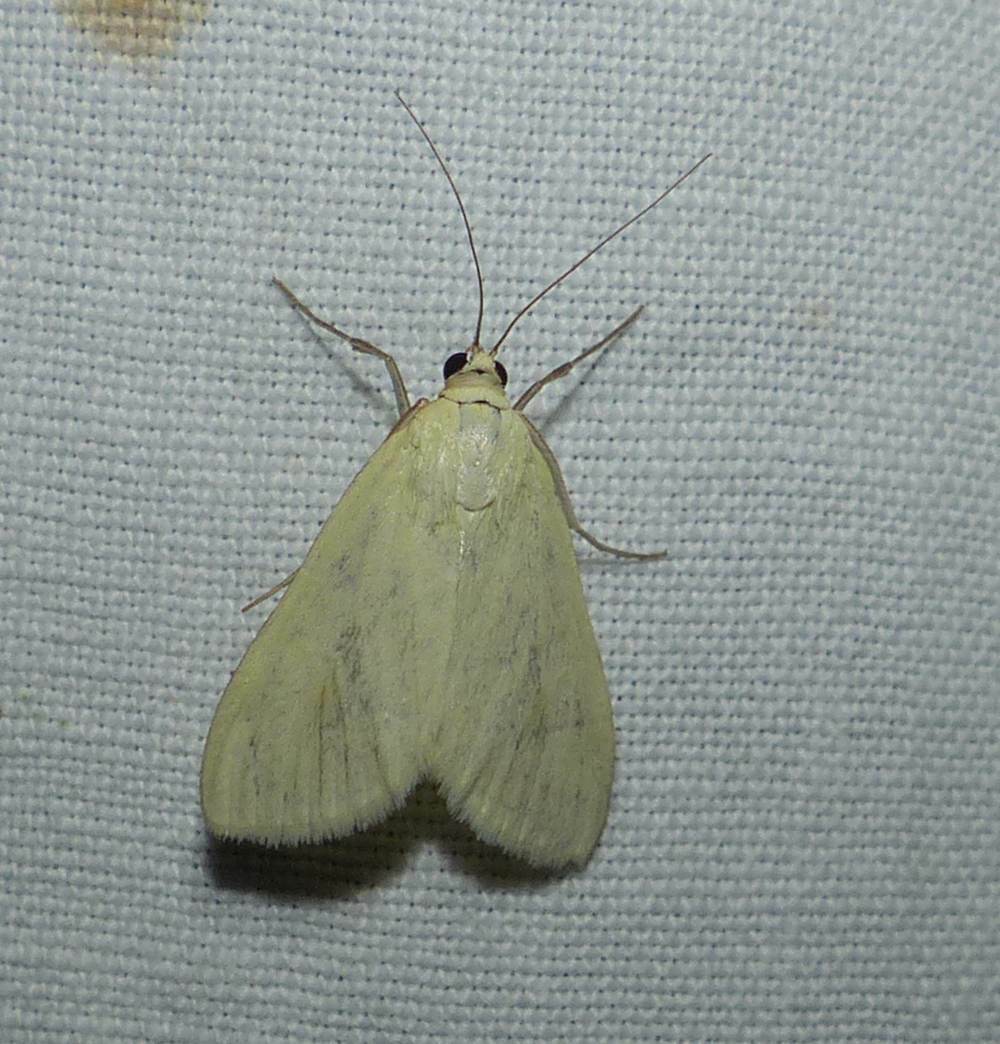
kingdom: Animalia
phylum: Arthropoda
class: Insecta
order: Lepidoptera
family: Crambidae
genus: Sitochroa
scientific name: Sitochroa palealis
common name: Greenish-yellow sitochroa moth
